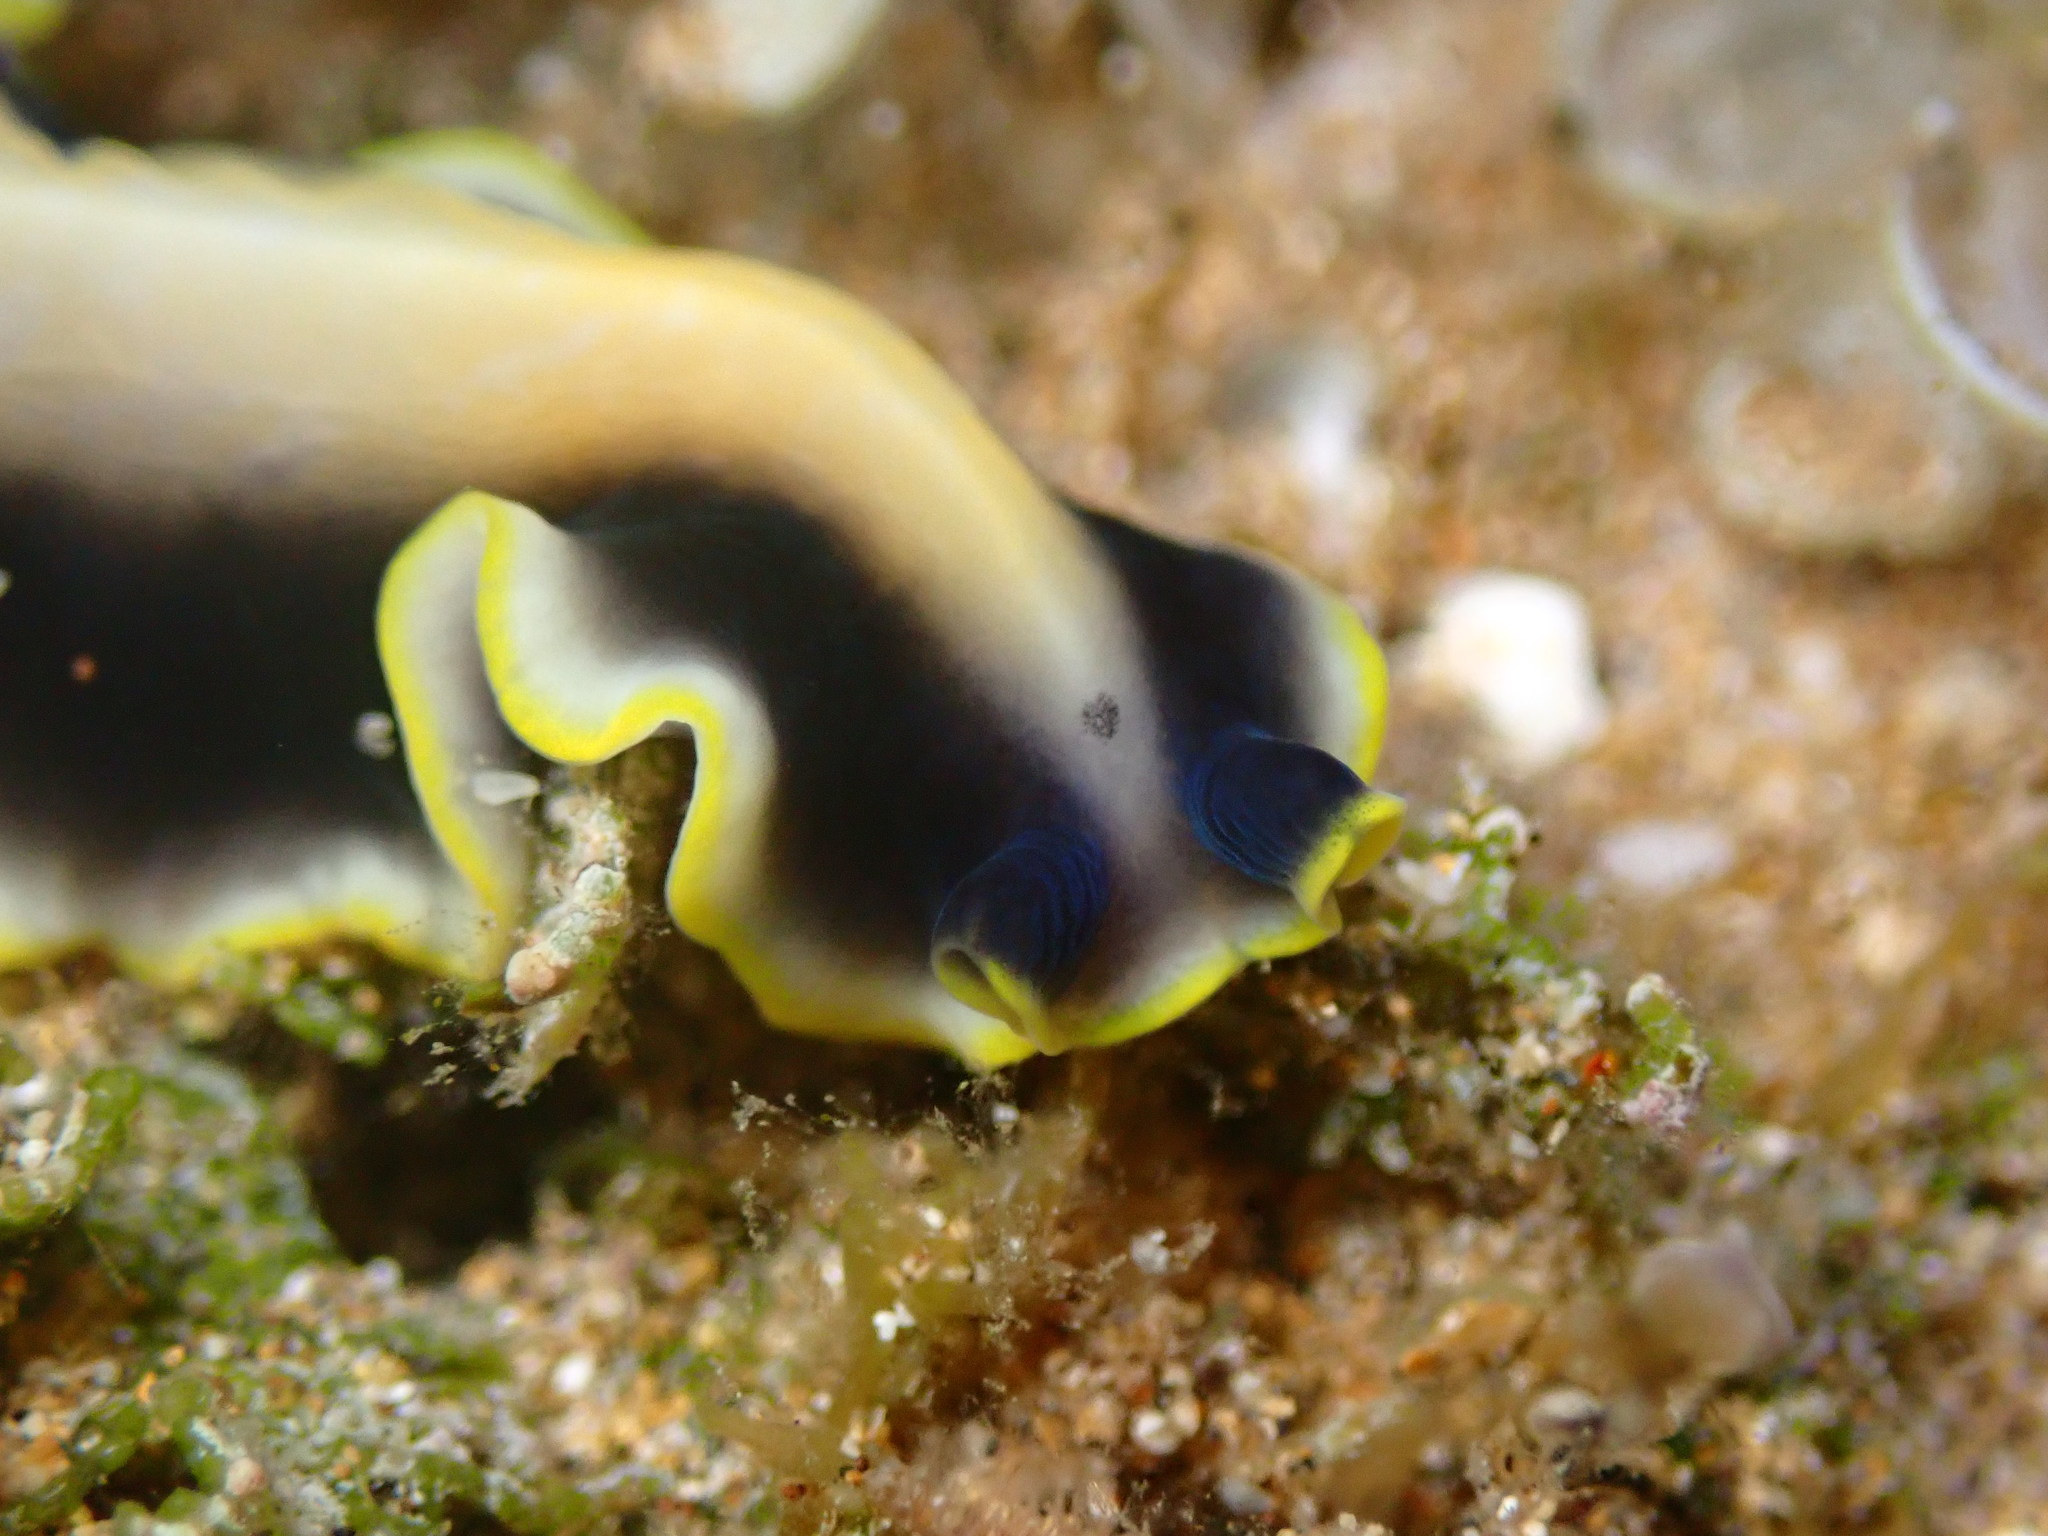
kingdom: Animalia
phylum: Platyhelminthes
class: Turbellaria
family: Pseudocerotidae
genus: Pseudoceros
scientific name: Pseudoceros paralaticlavus
